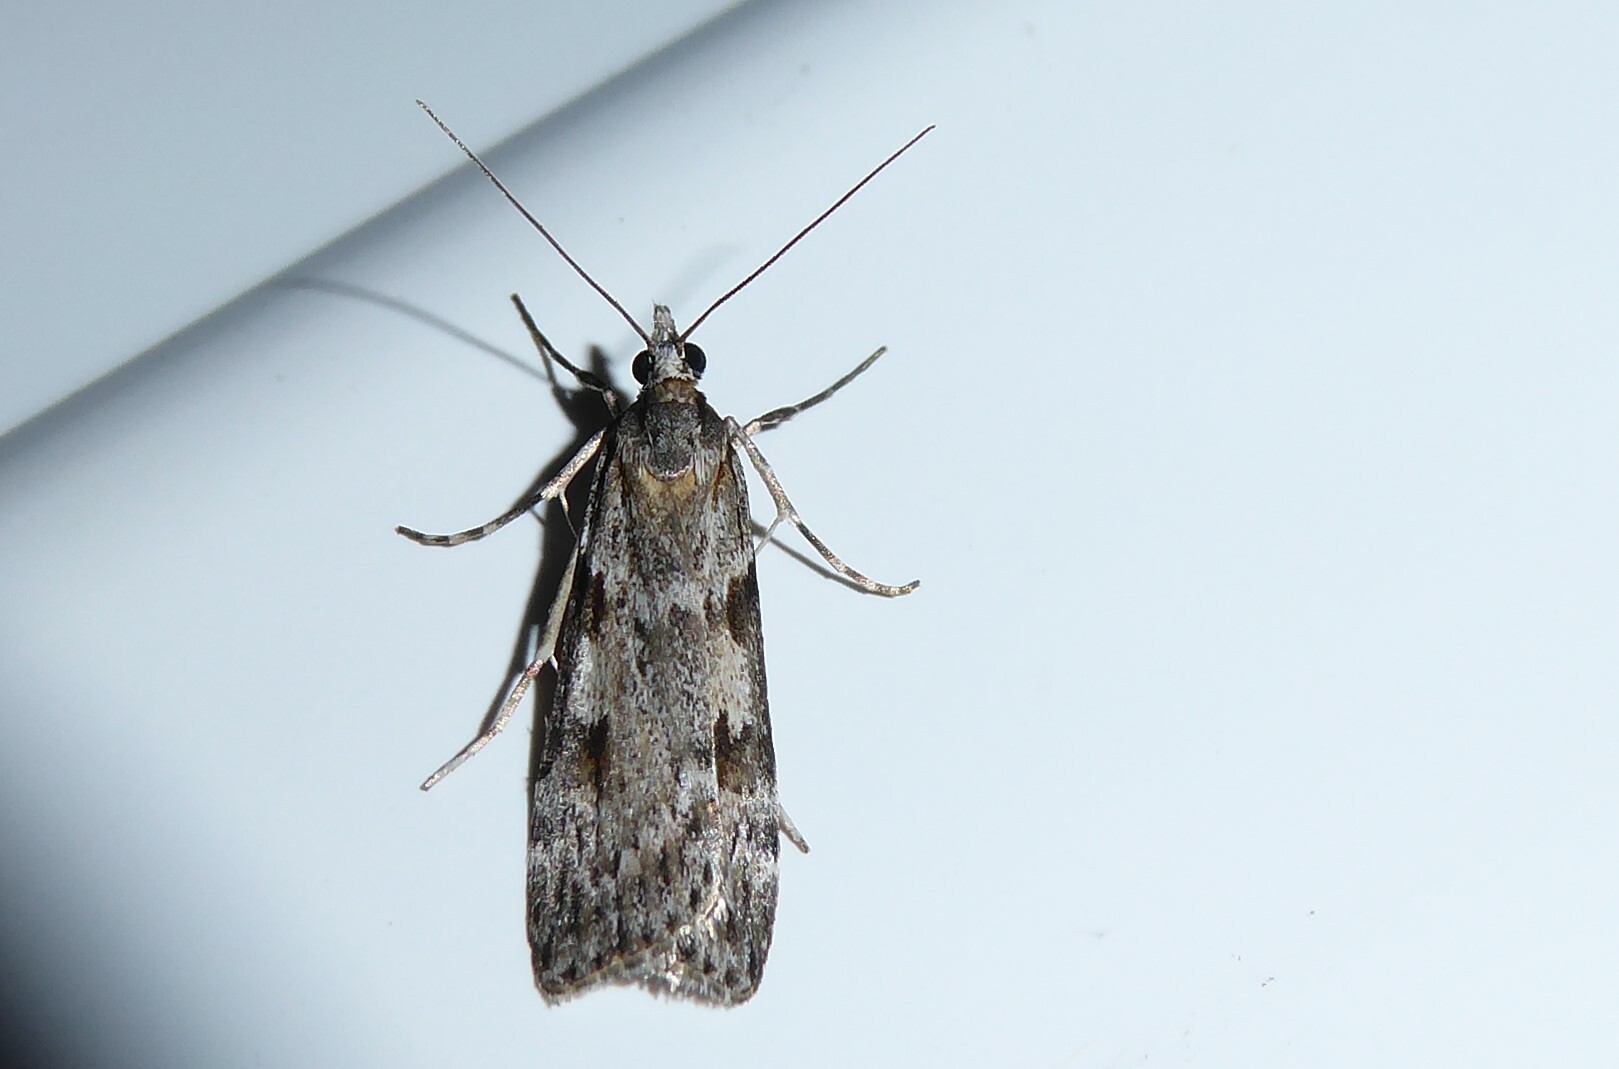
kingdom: Animalia
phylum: Arthropoda
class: Insecta
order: Lepidoptera
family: Crambidae
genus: Scoparia
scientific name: Scoparia halopis
